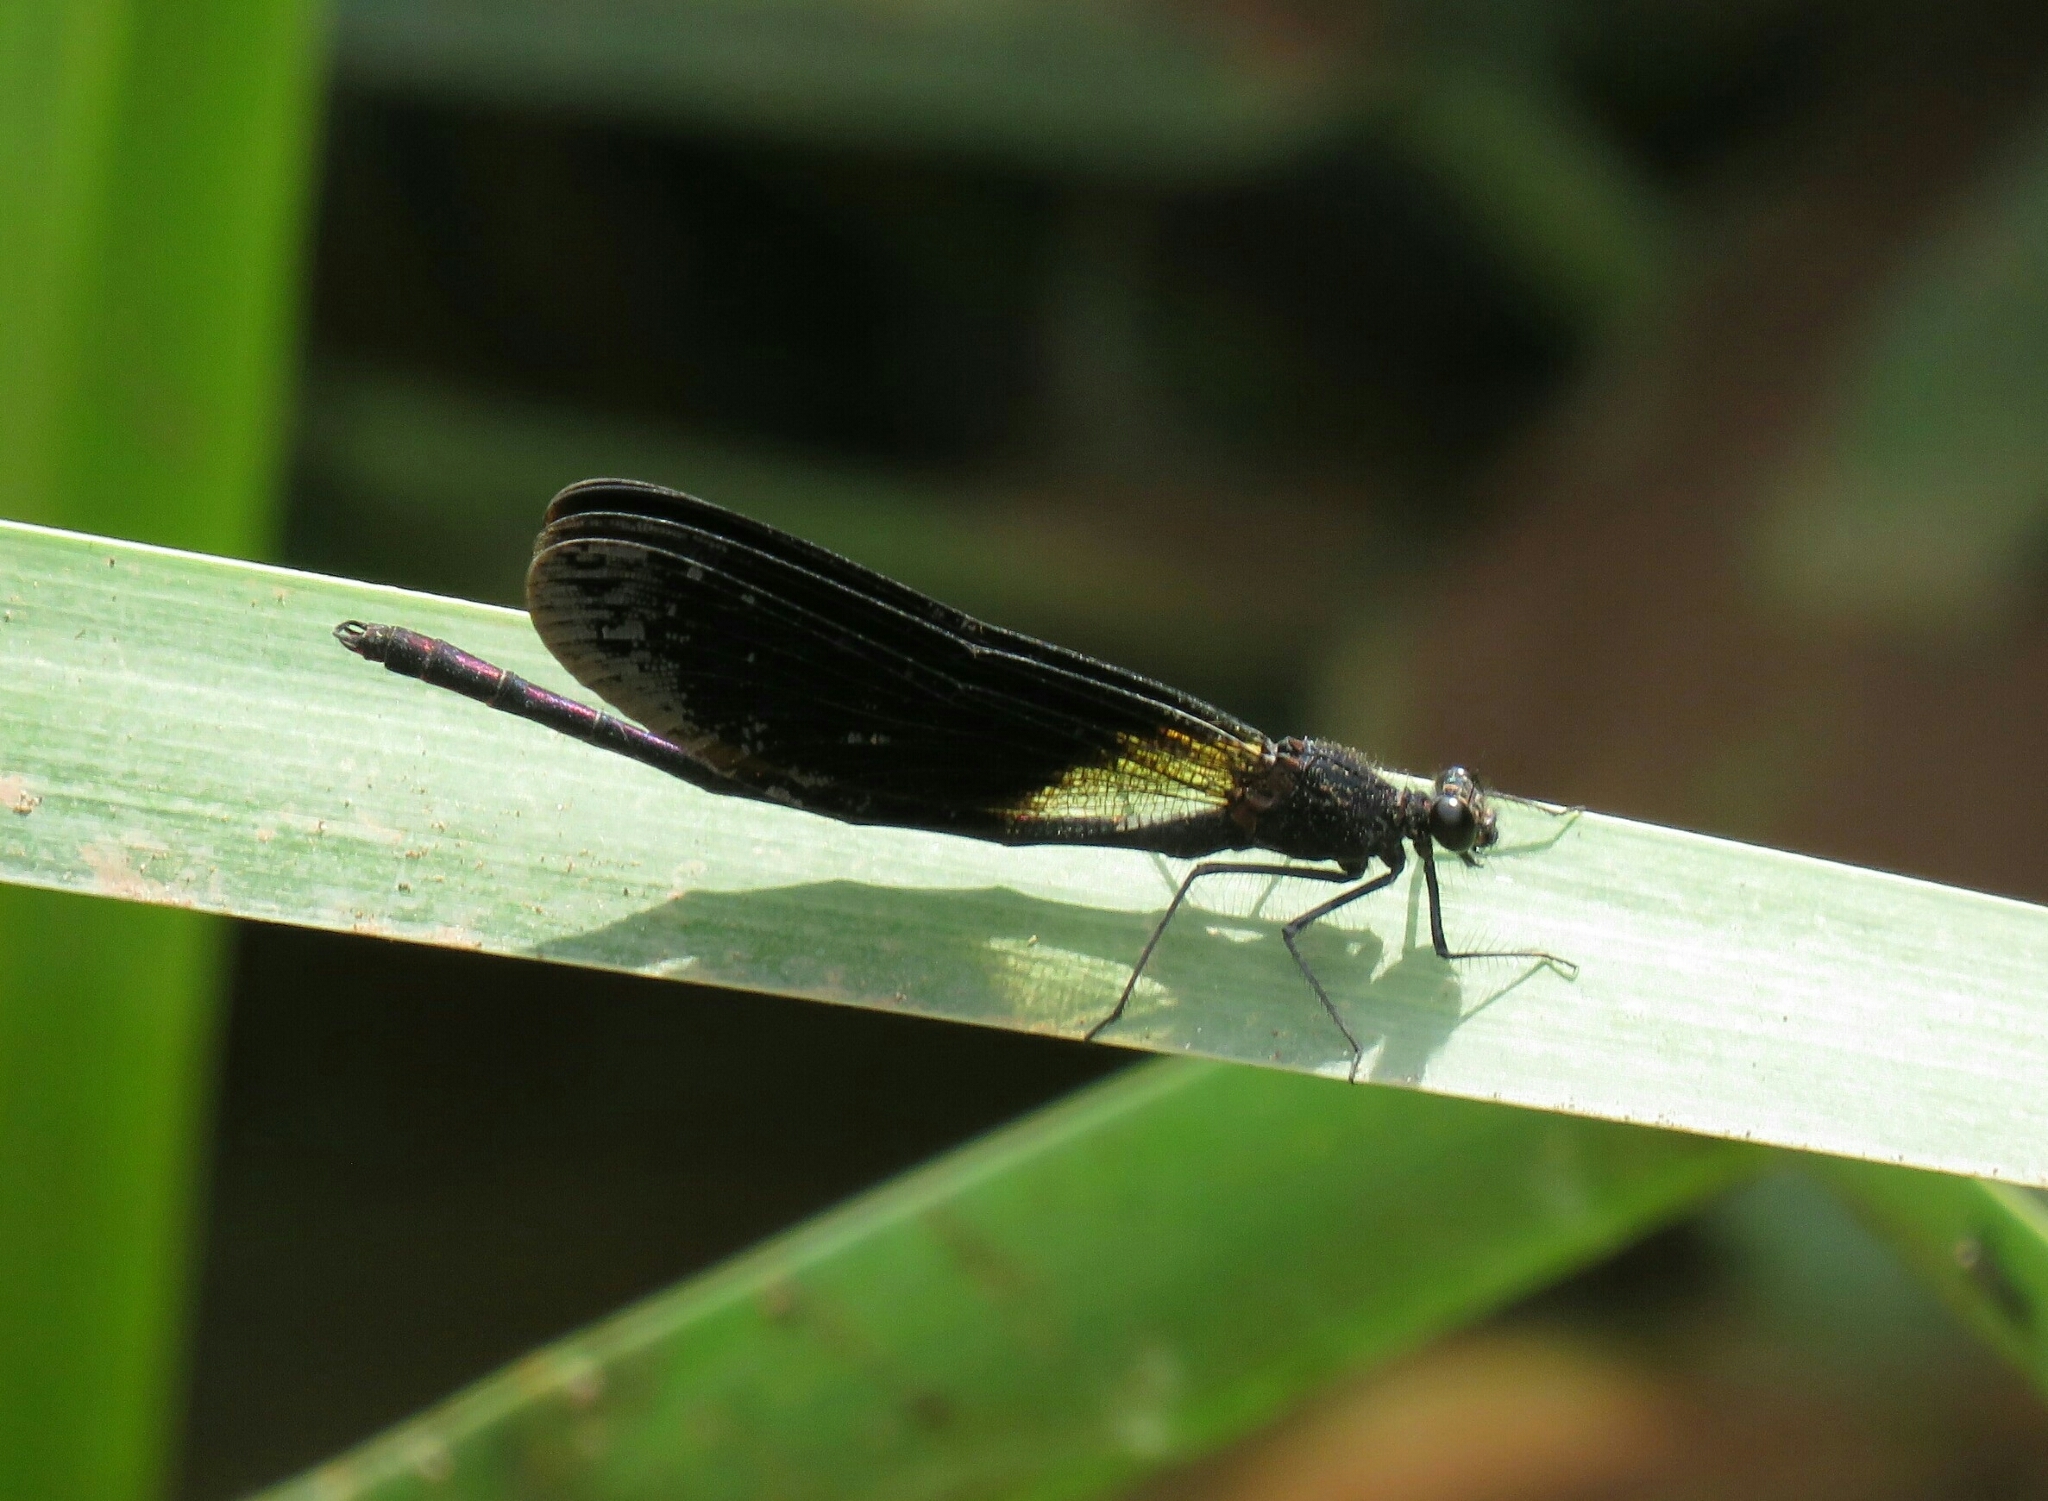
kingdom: Animalia
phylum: Arthropoda
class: Insecta
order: Odonata
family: Calopterygidae
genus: Calopteryx
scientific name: Calopteryx haemorrhoidalis
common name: Copper demoiselle
